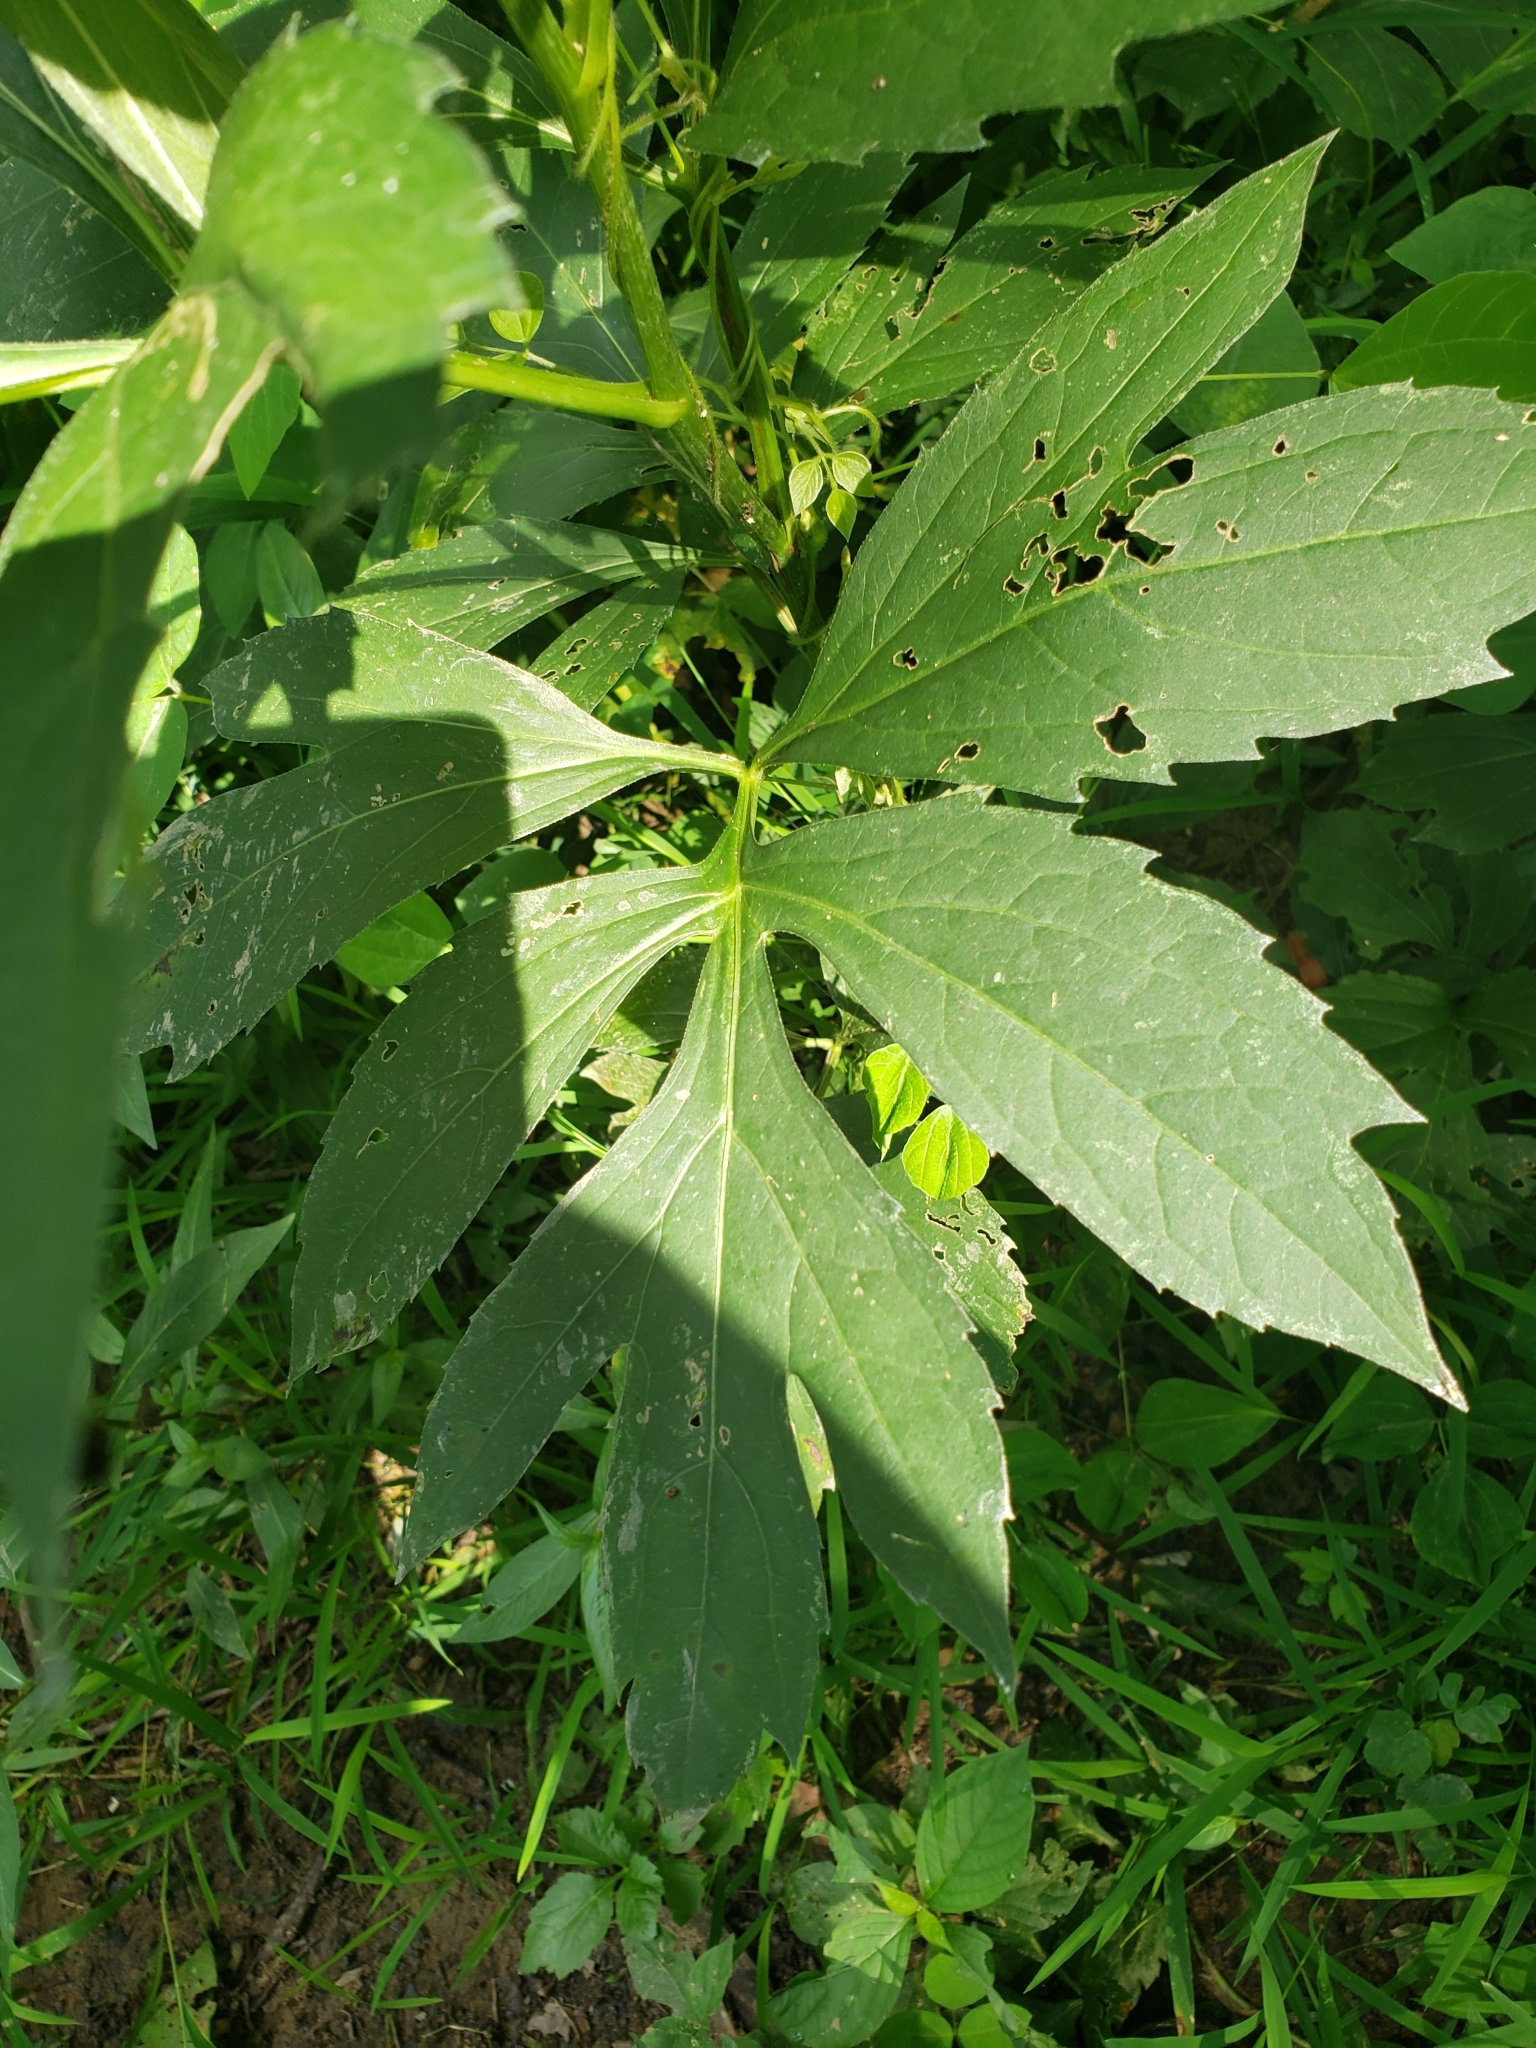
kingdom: Plantae
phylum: Tracheophyta
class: Magnoliopsida
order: Asterales
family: Asteraceae
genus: Rudbeckia
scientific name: Rudbeckia laciniata
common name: Coneflower
